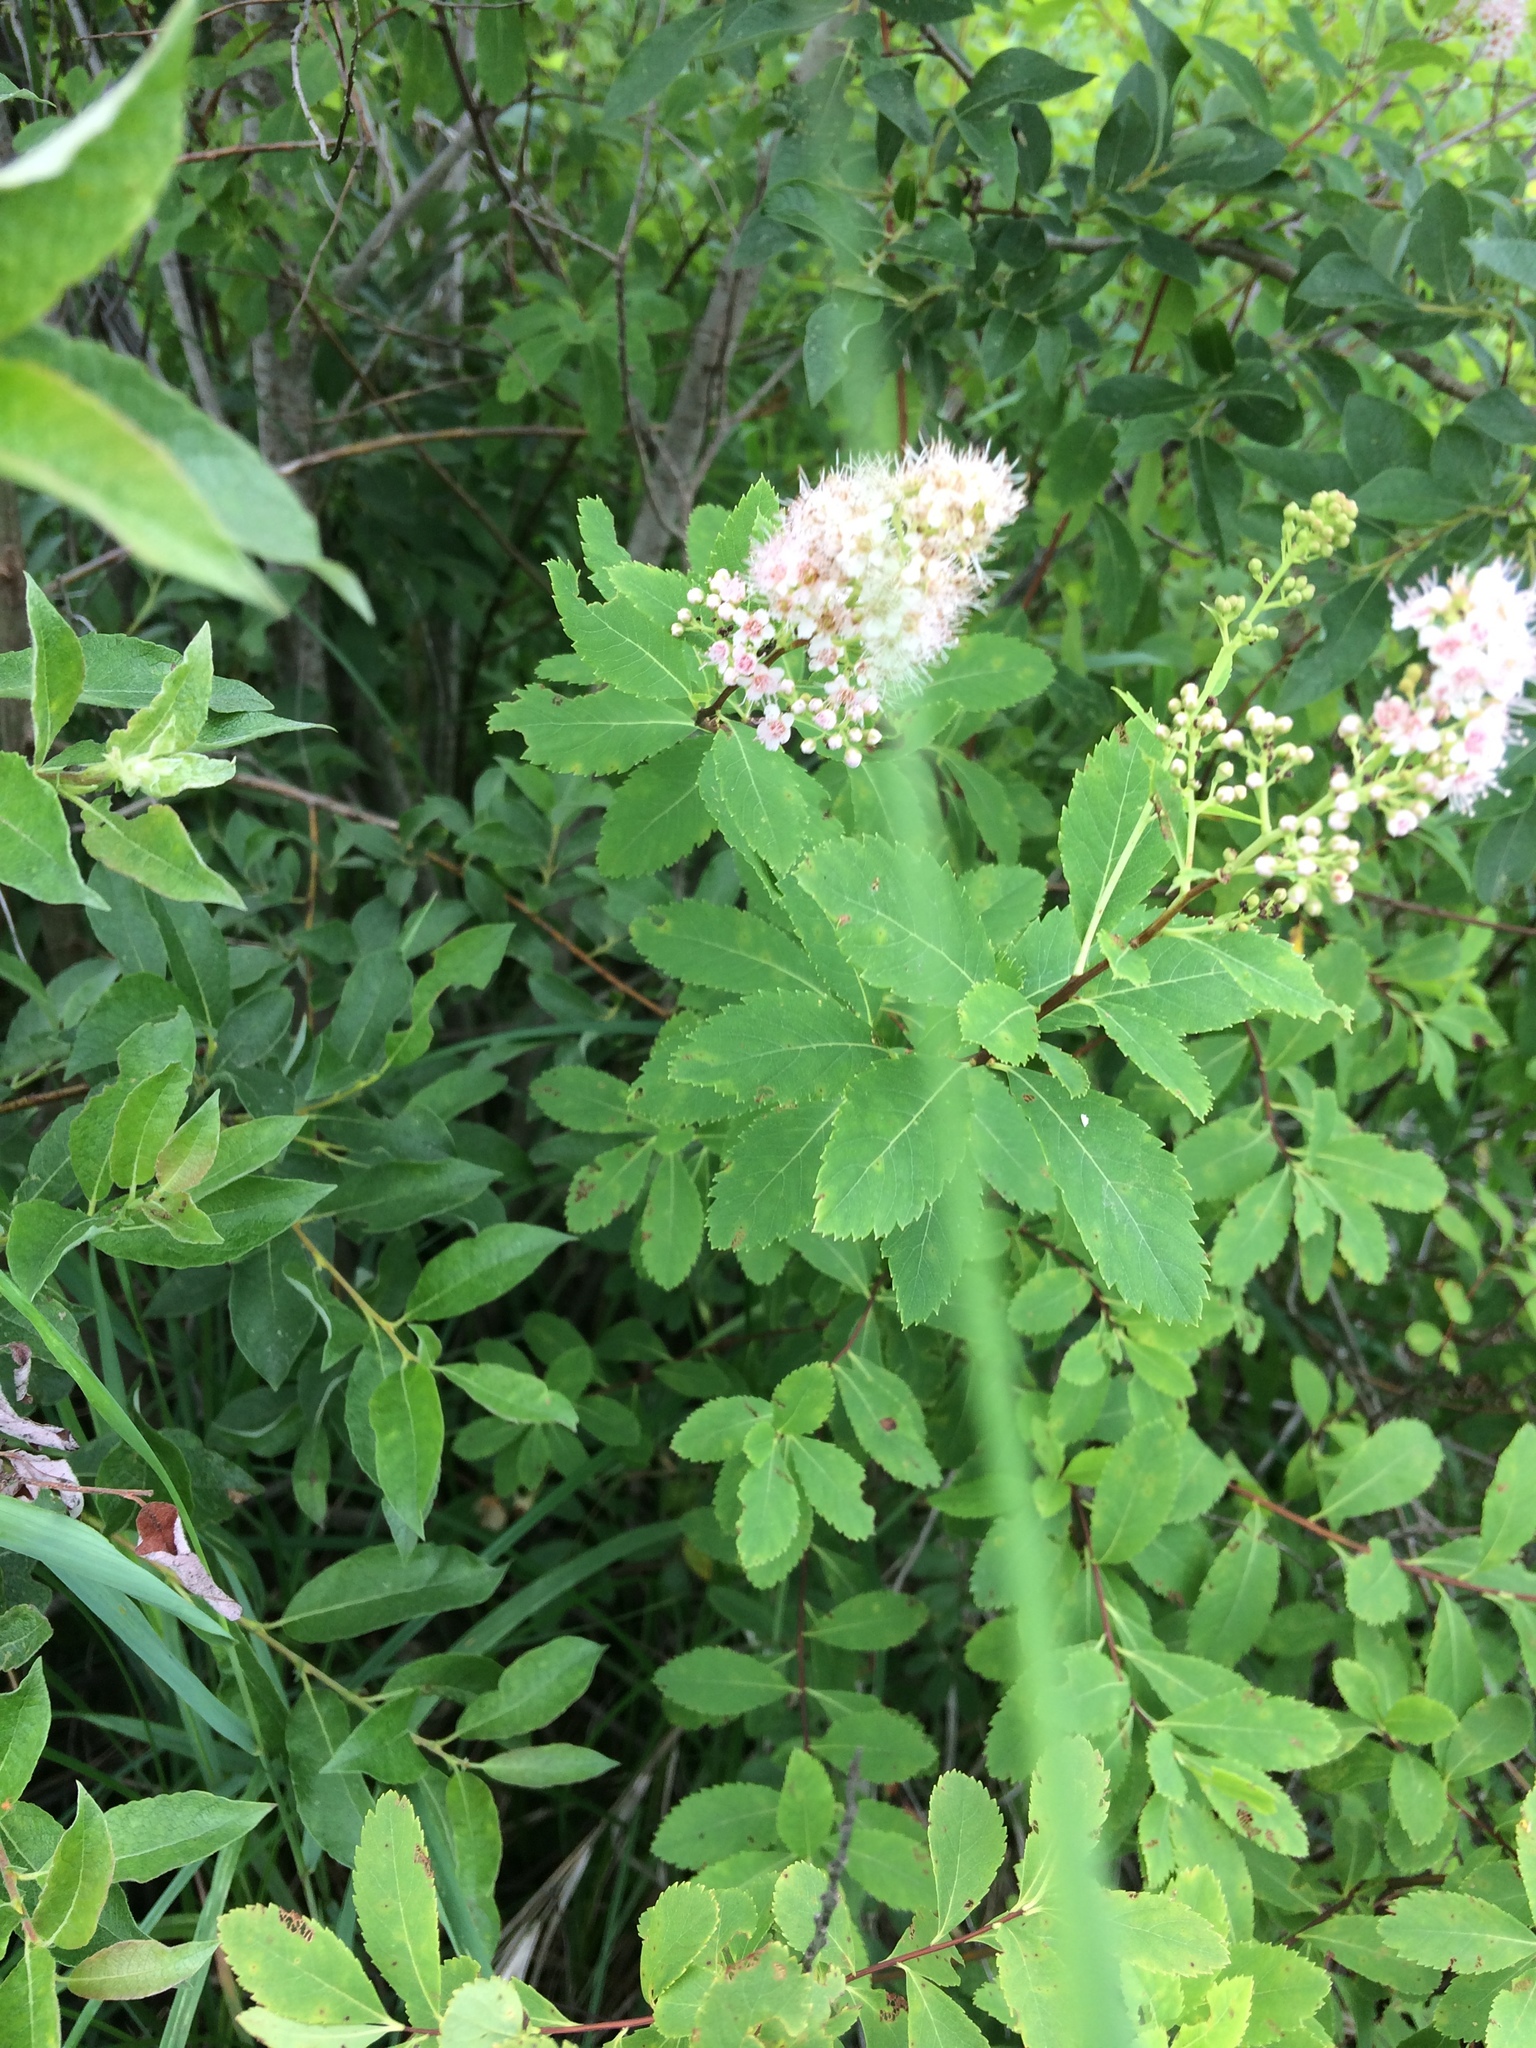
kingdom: Plantae
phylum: Tracheophyta
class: Magnoliopsida
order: Rosales
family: Rosaceae
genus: Spiraea
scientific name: Spiraea alba
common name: Pale bridewort
